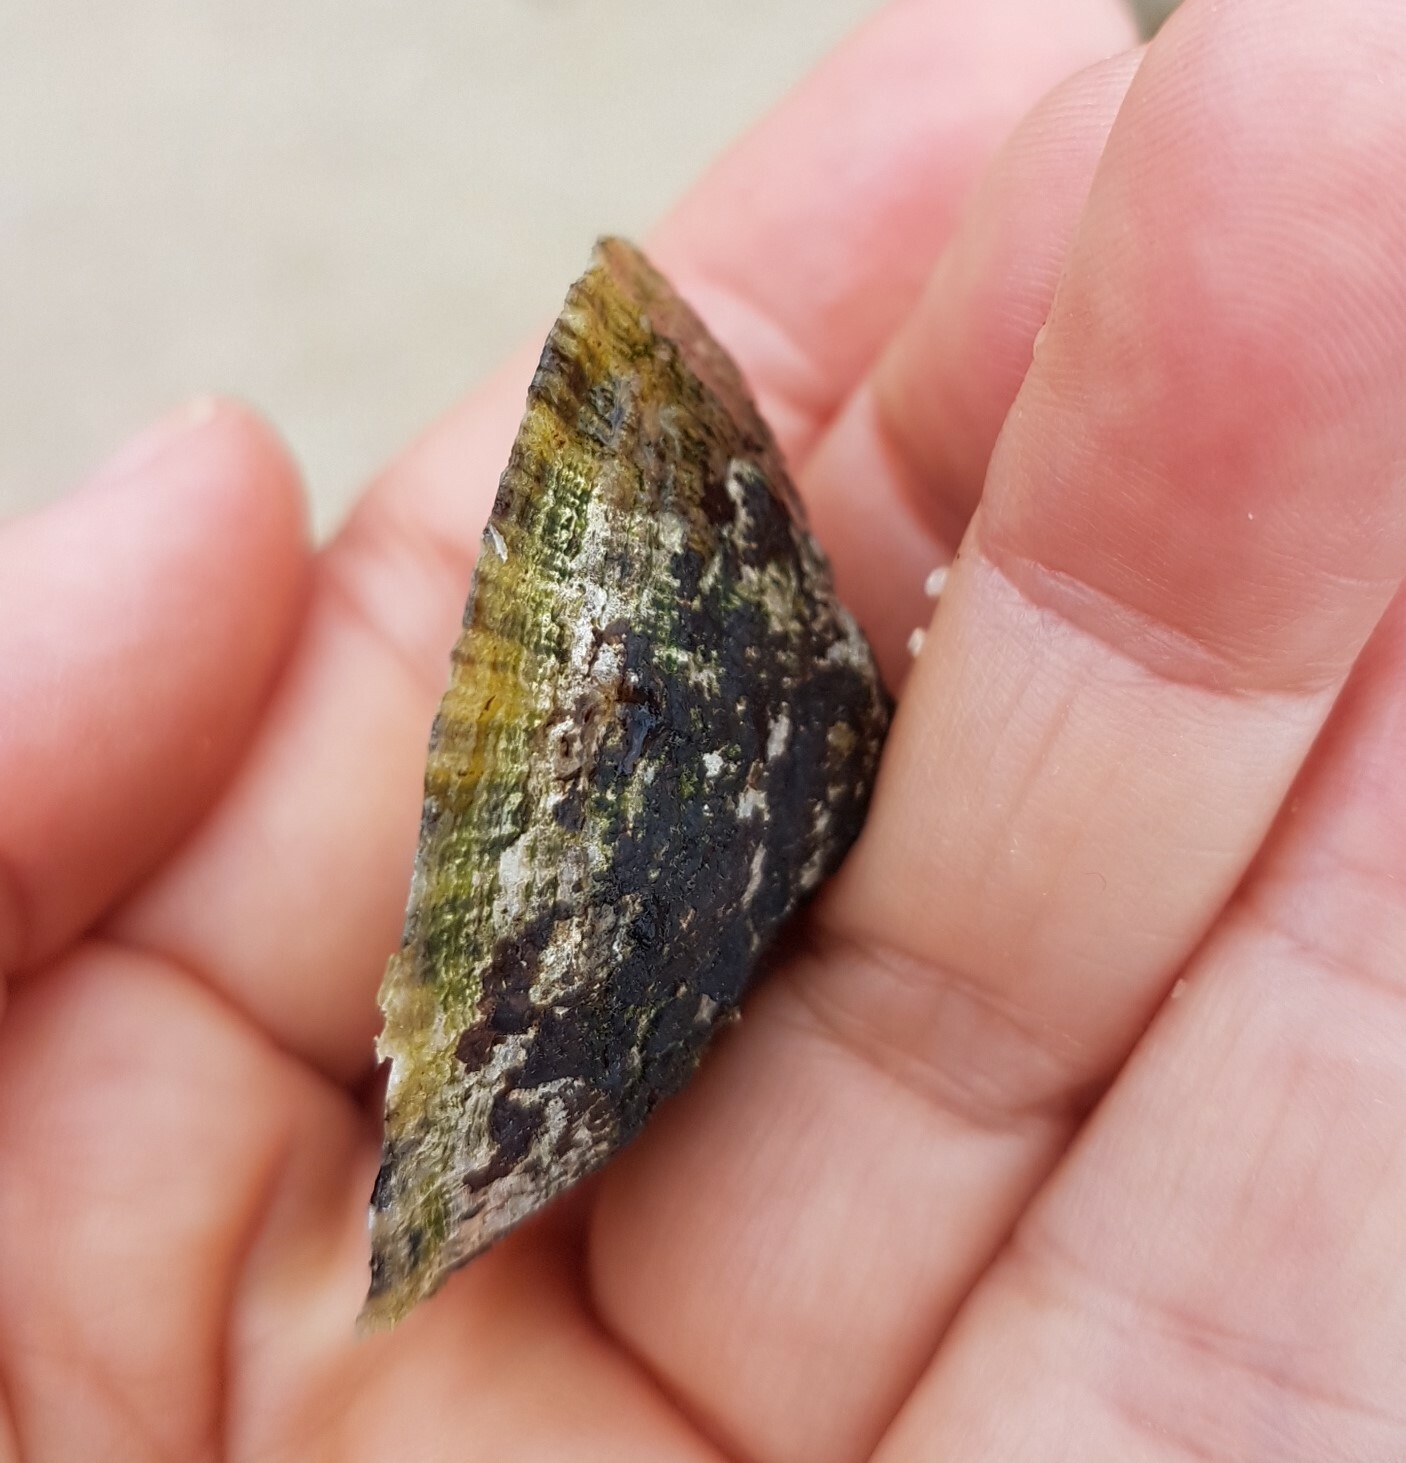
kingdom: Animalia
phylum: Mollusca
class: Gastropoda
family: Patellidae
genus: Patella
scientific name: Patella vulgata
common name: Common limpet
